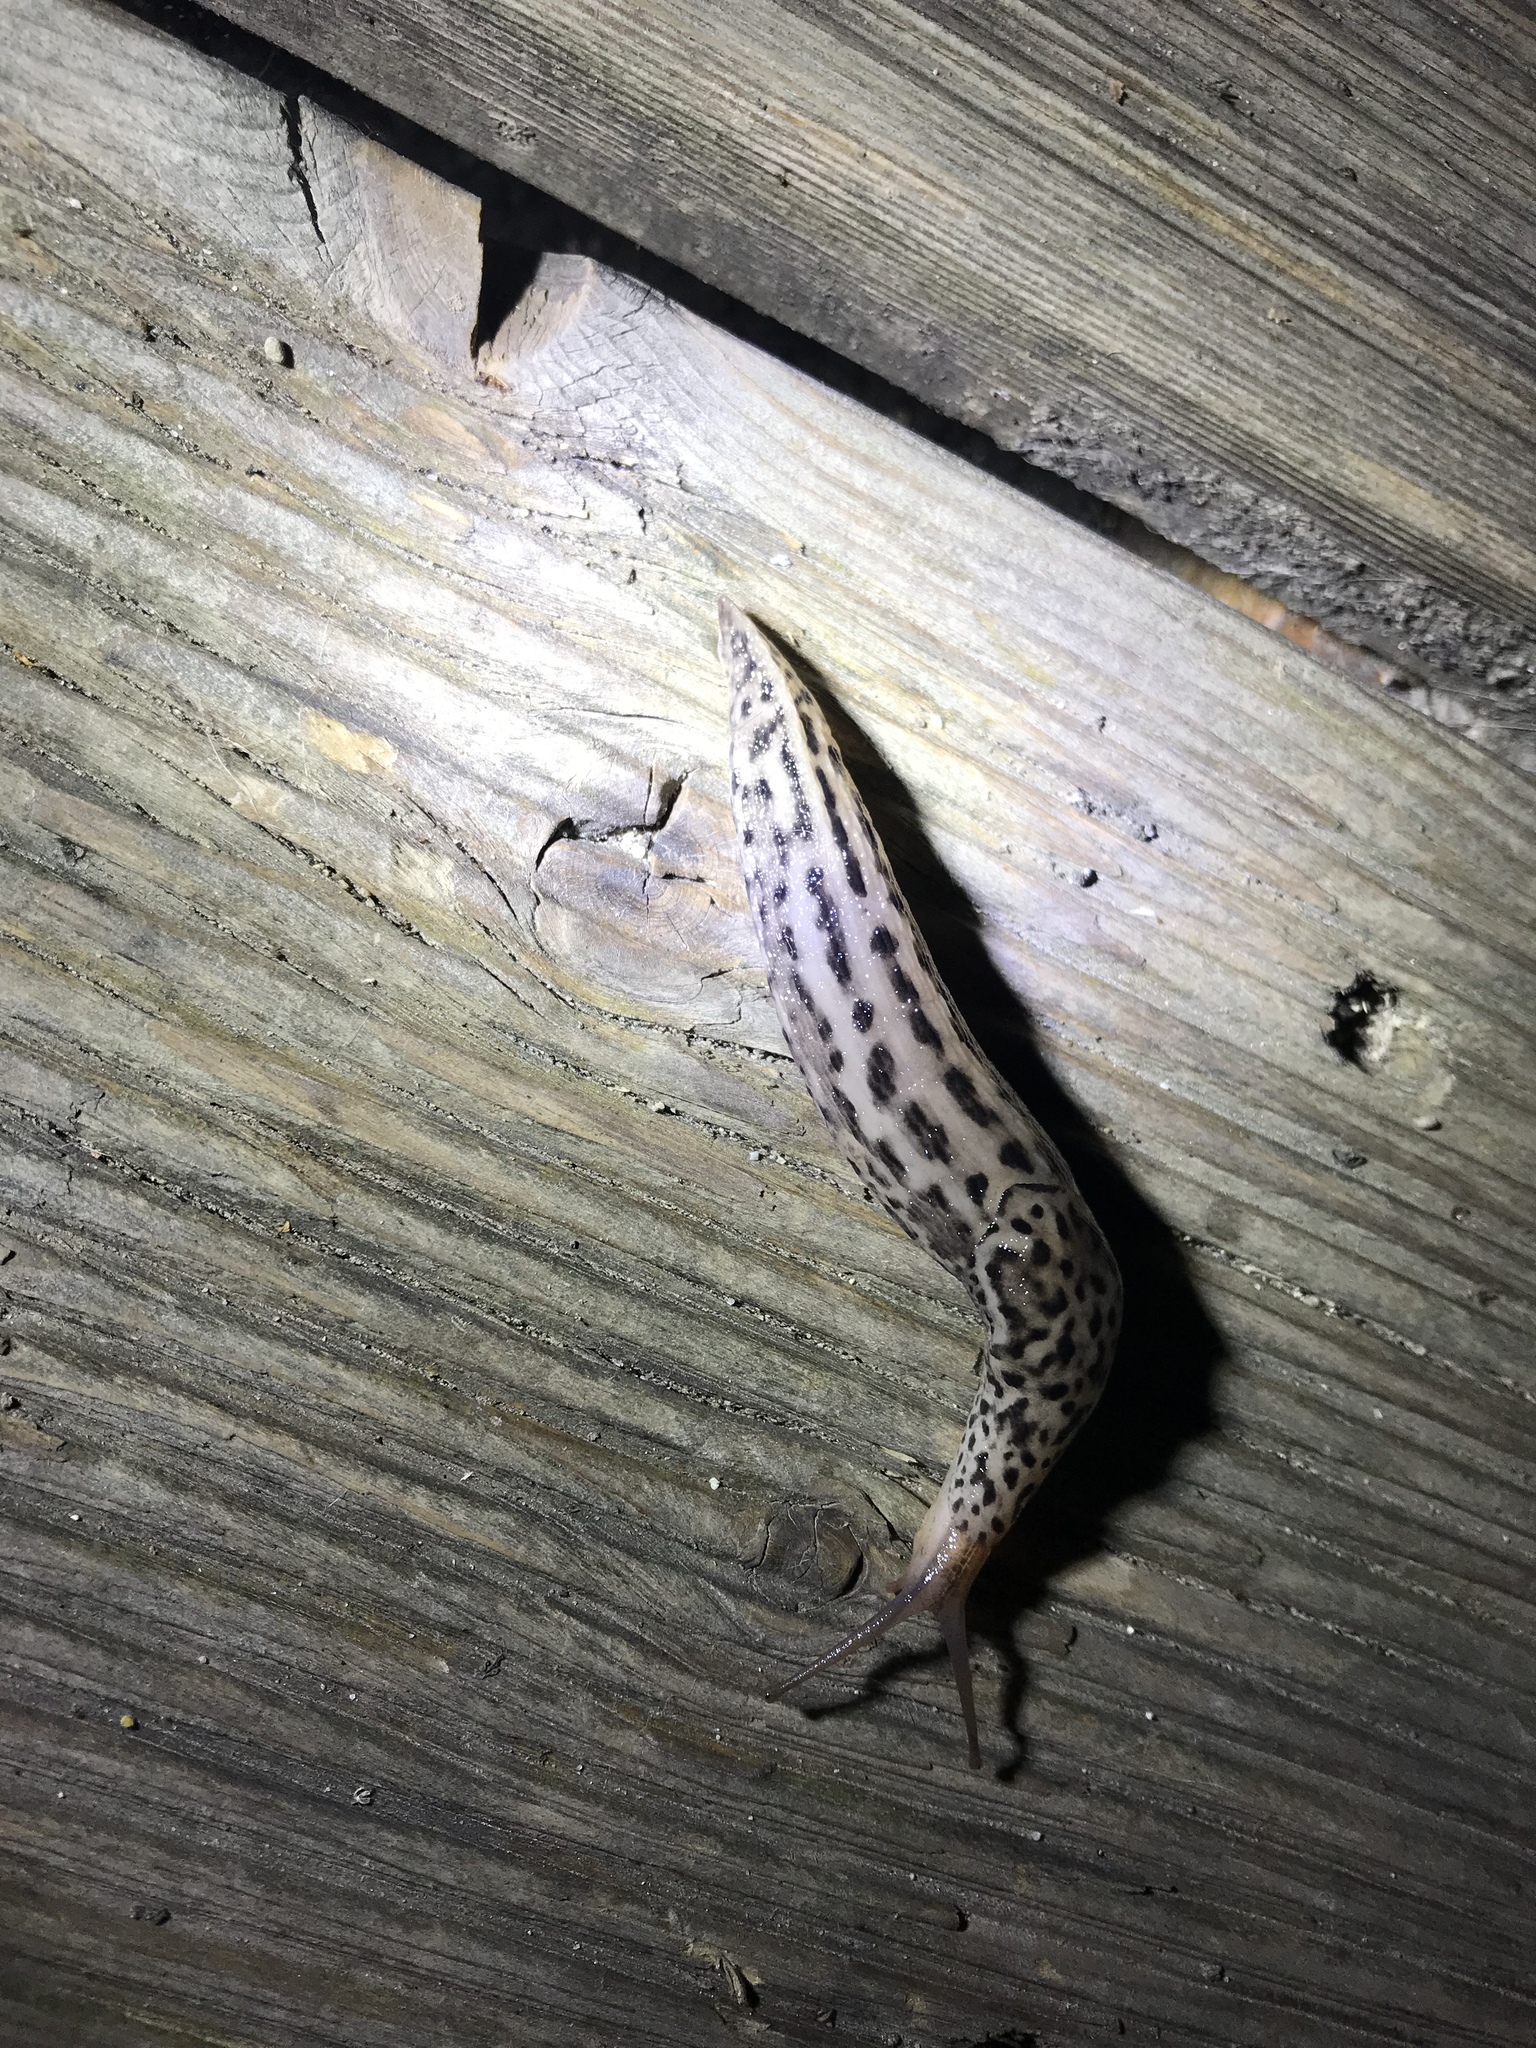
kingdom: Animalia
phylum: Mollusca
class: Gastropoda
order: Stylommatophora
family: Limacidae
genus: Limax
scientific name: Limax maximus
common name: Great grey slug
